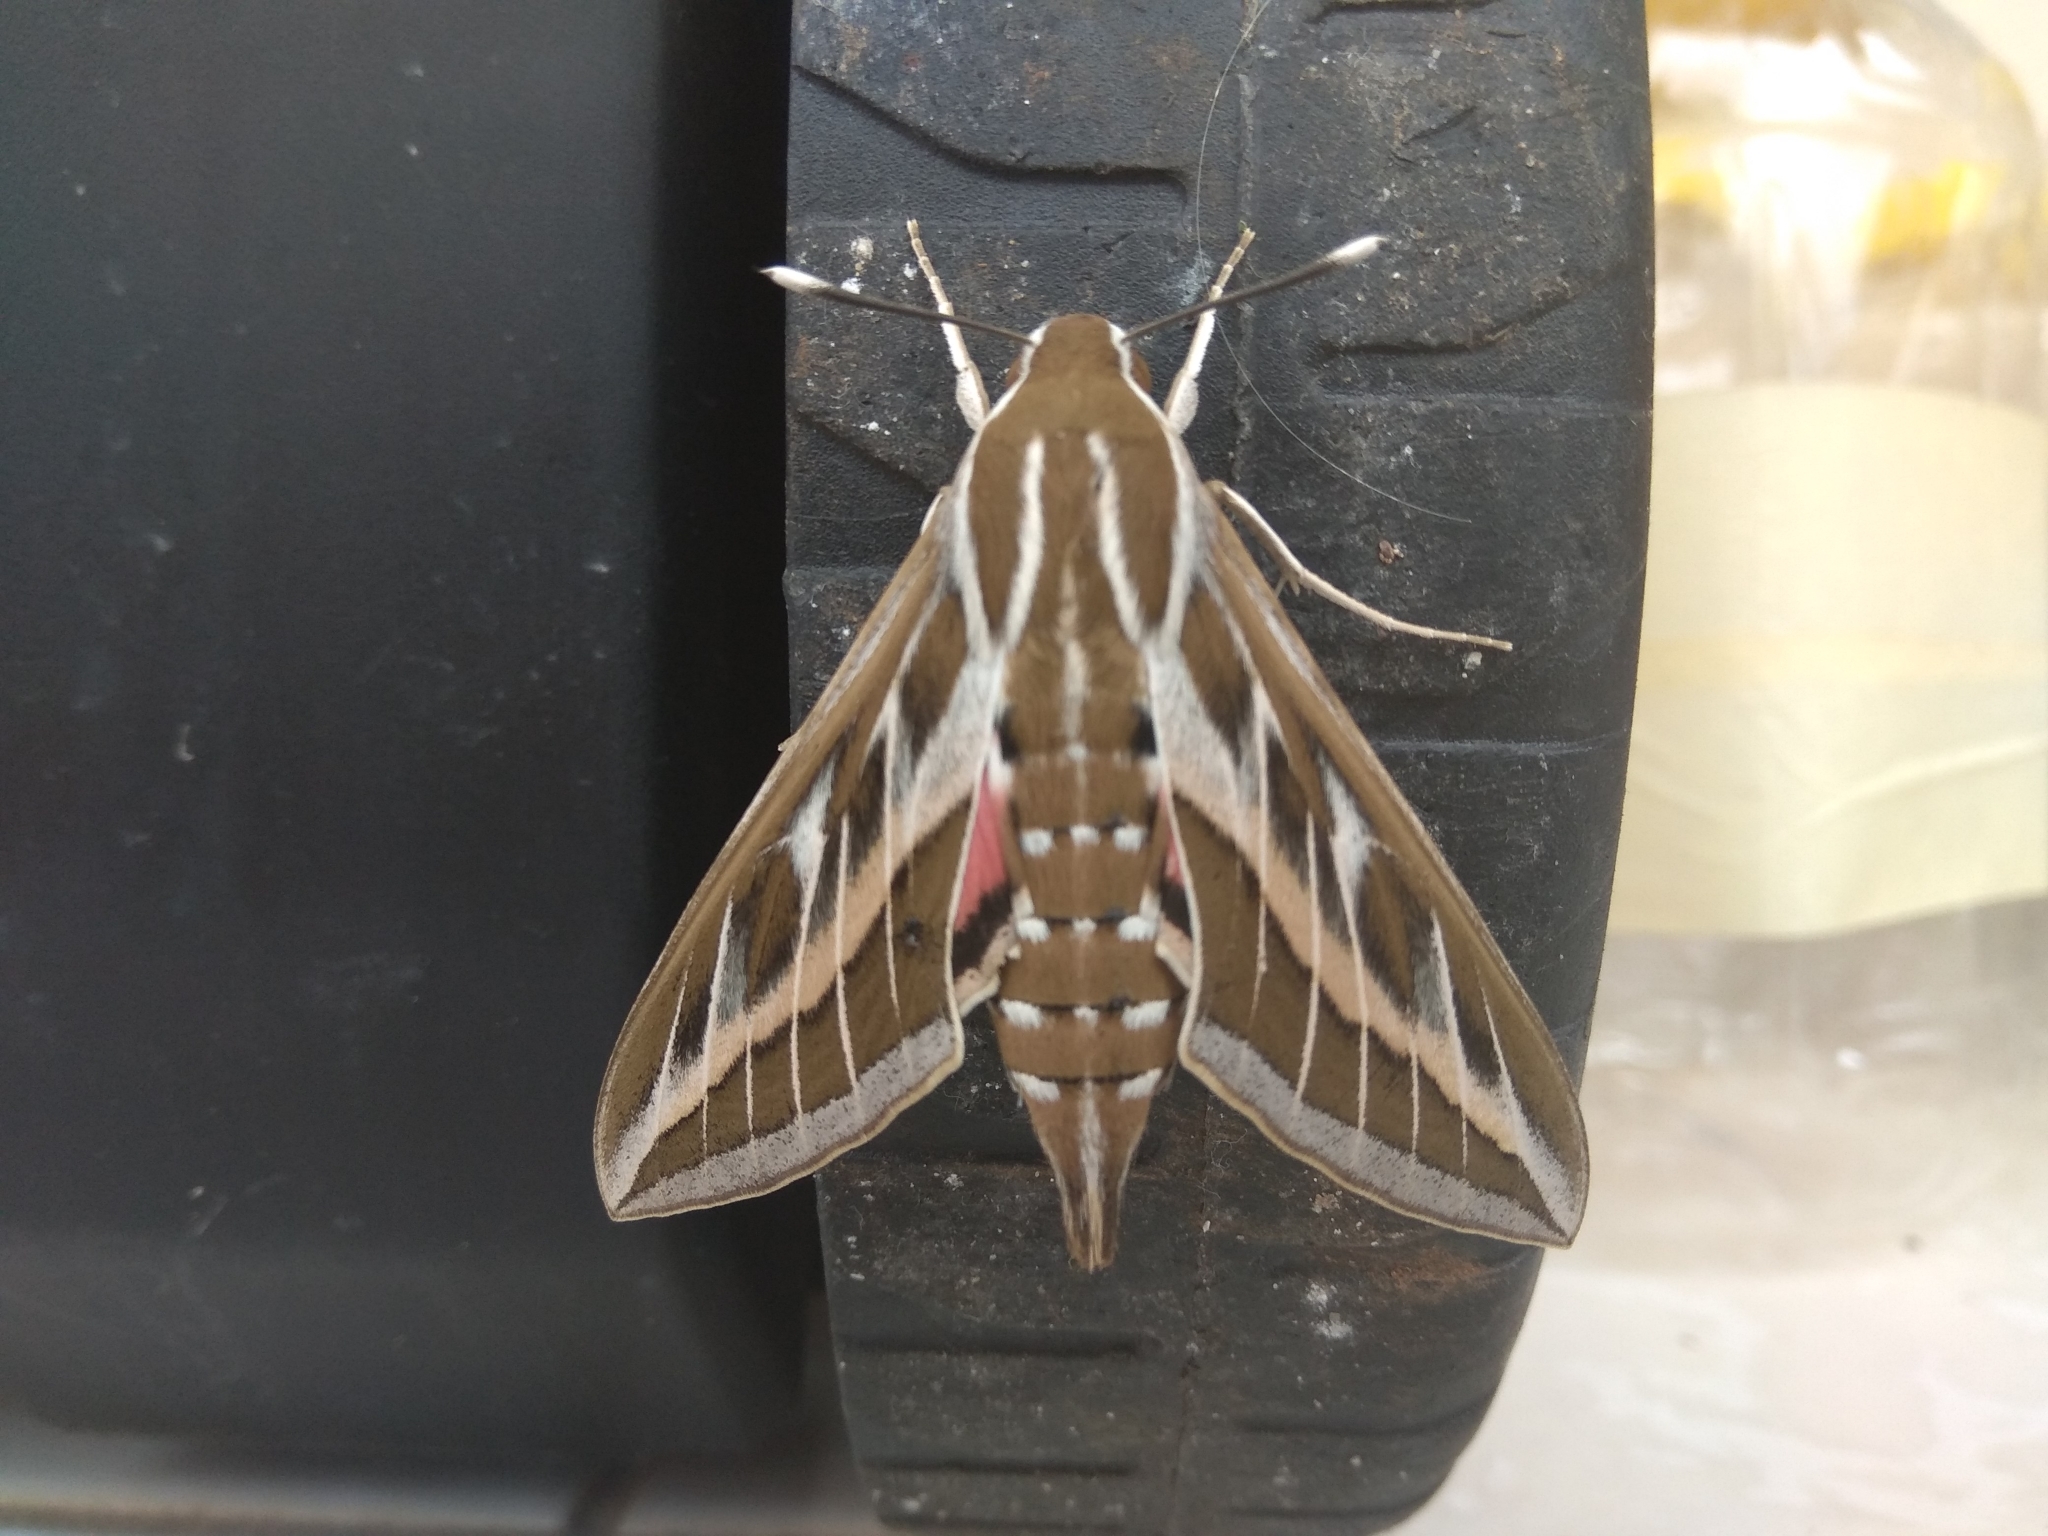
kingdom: Animalia
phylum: Arthropoda
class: Insecta
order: Lepidoptera
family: Sphingidae
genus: Hyles
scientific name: Hyles livornica
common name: Striped hawk-moth
